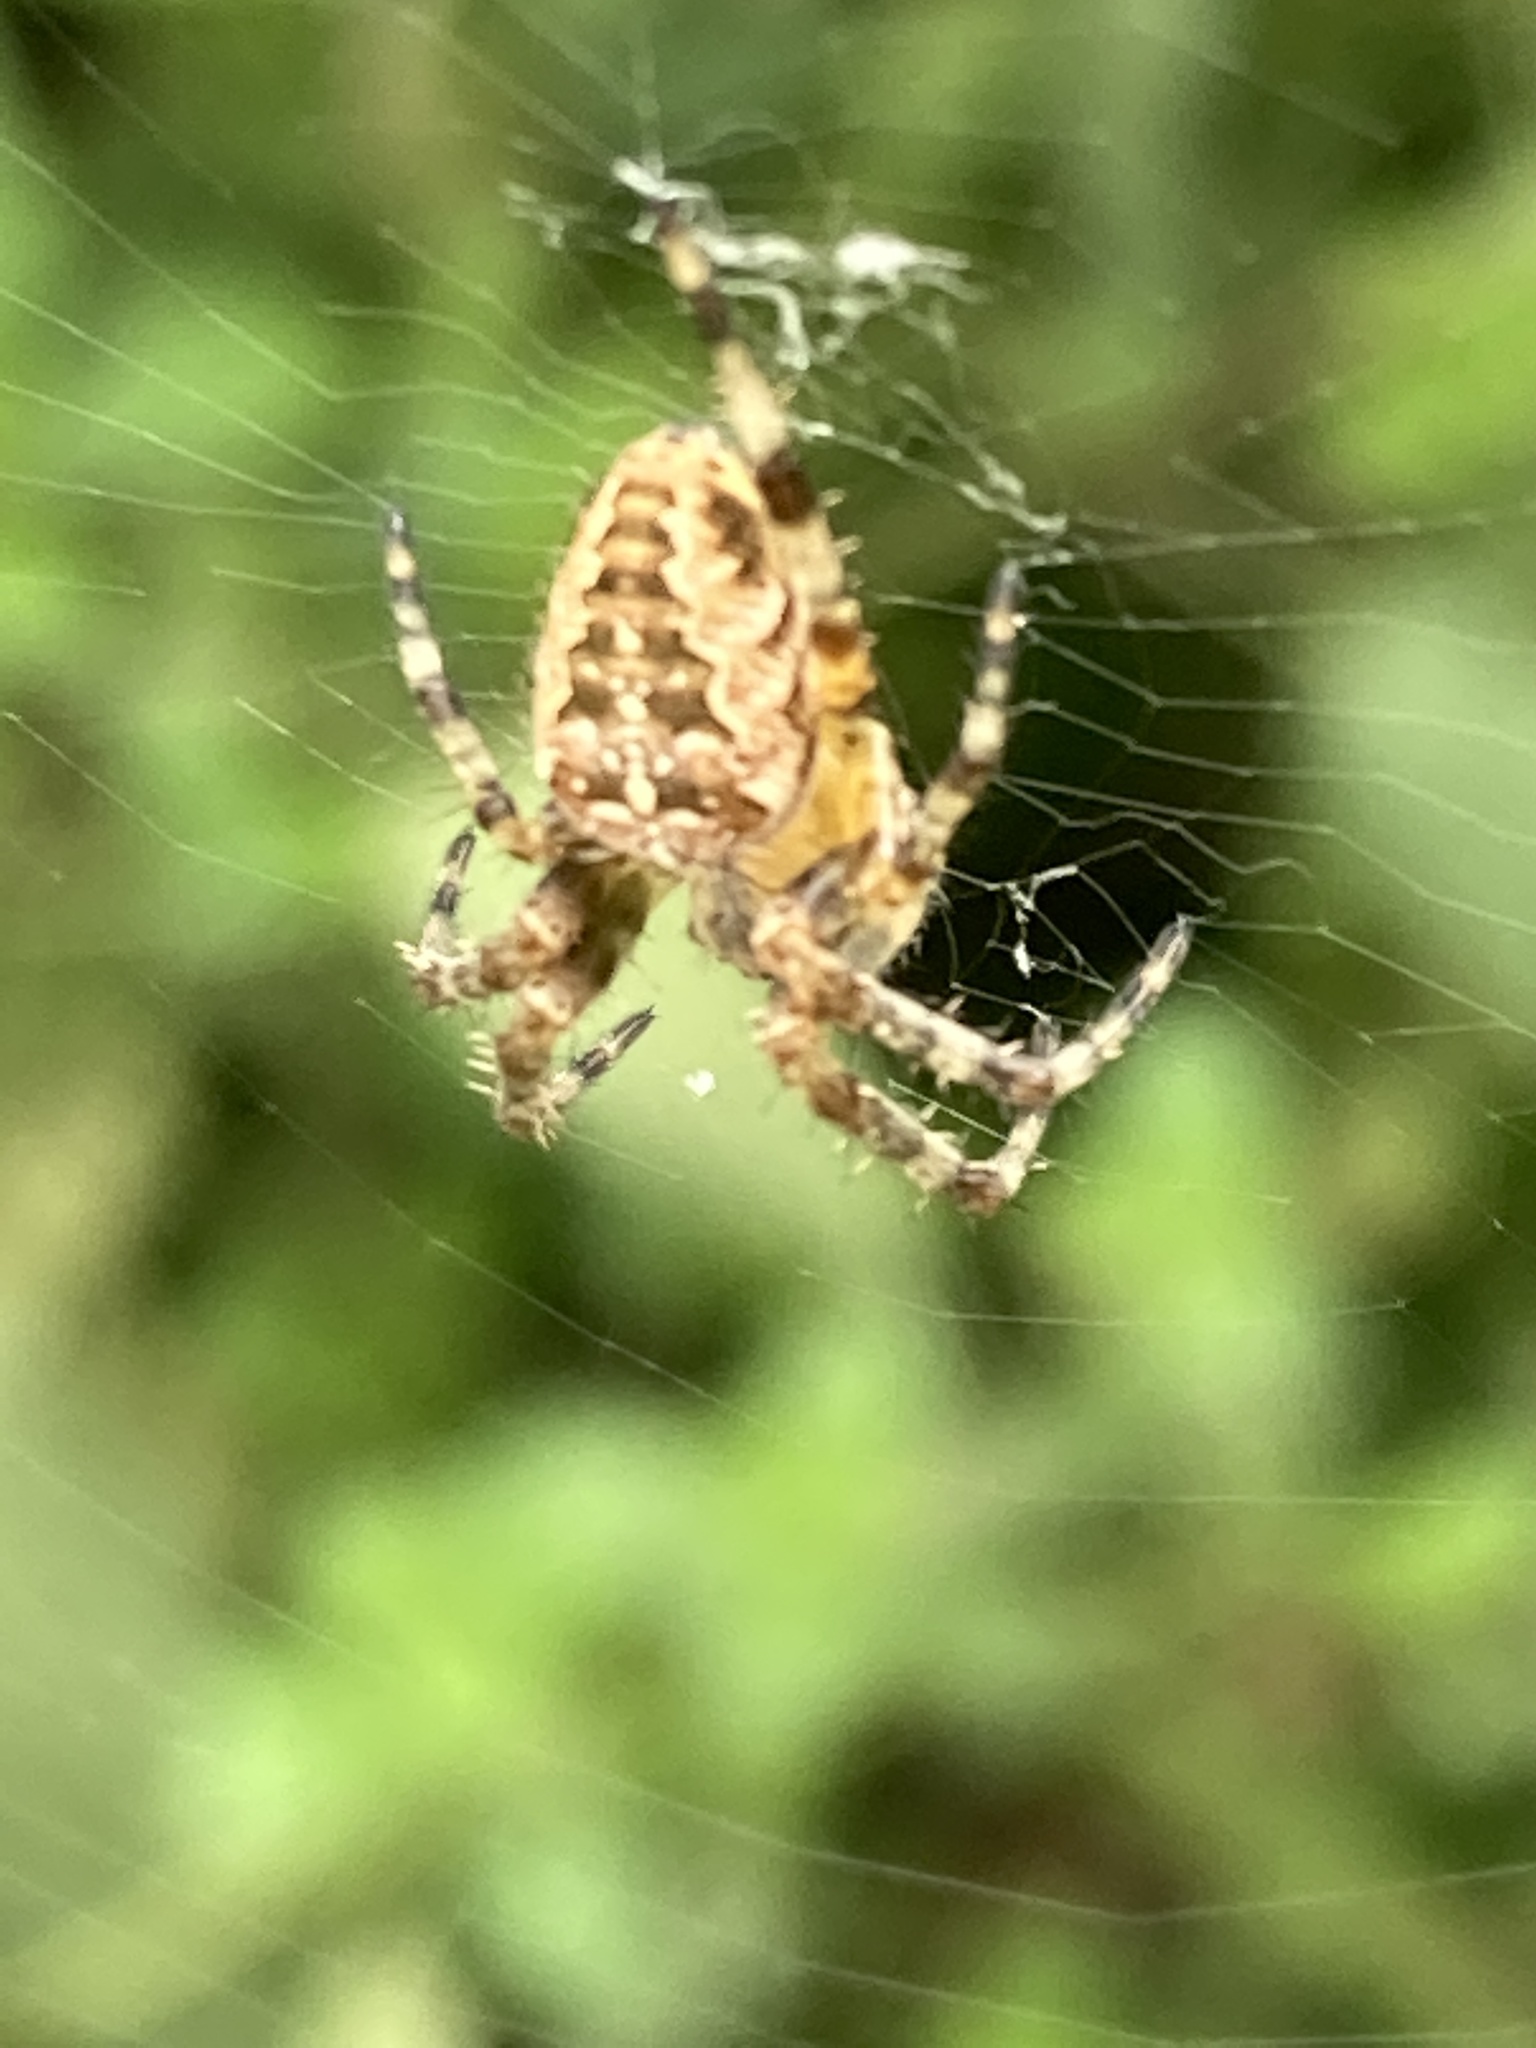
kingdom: Animalia
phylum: Arthropoda
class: Arachnida
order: Araneae
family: Araneidae
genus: Araneus
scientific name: Araneus diadematus
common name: Cross orbweaver
